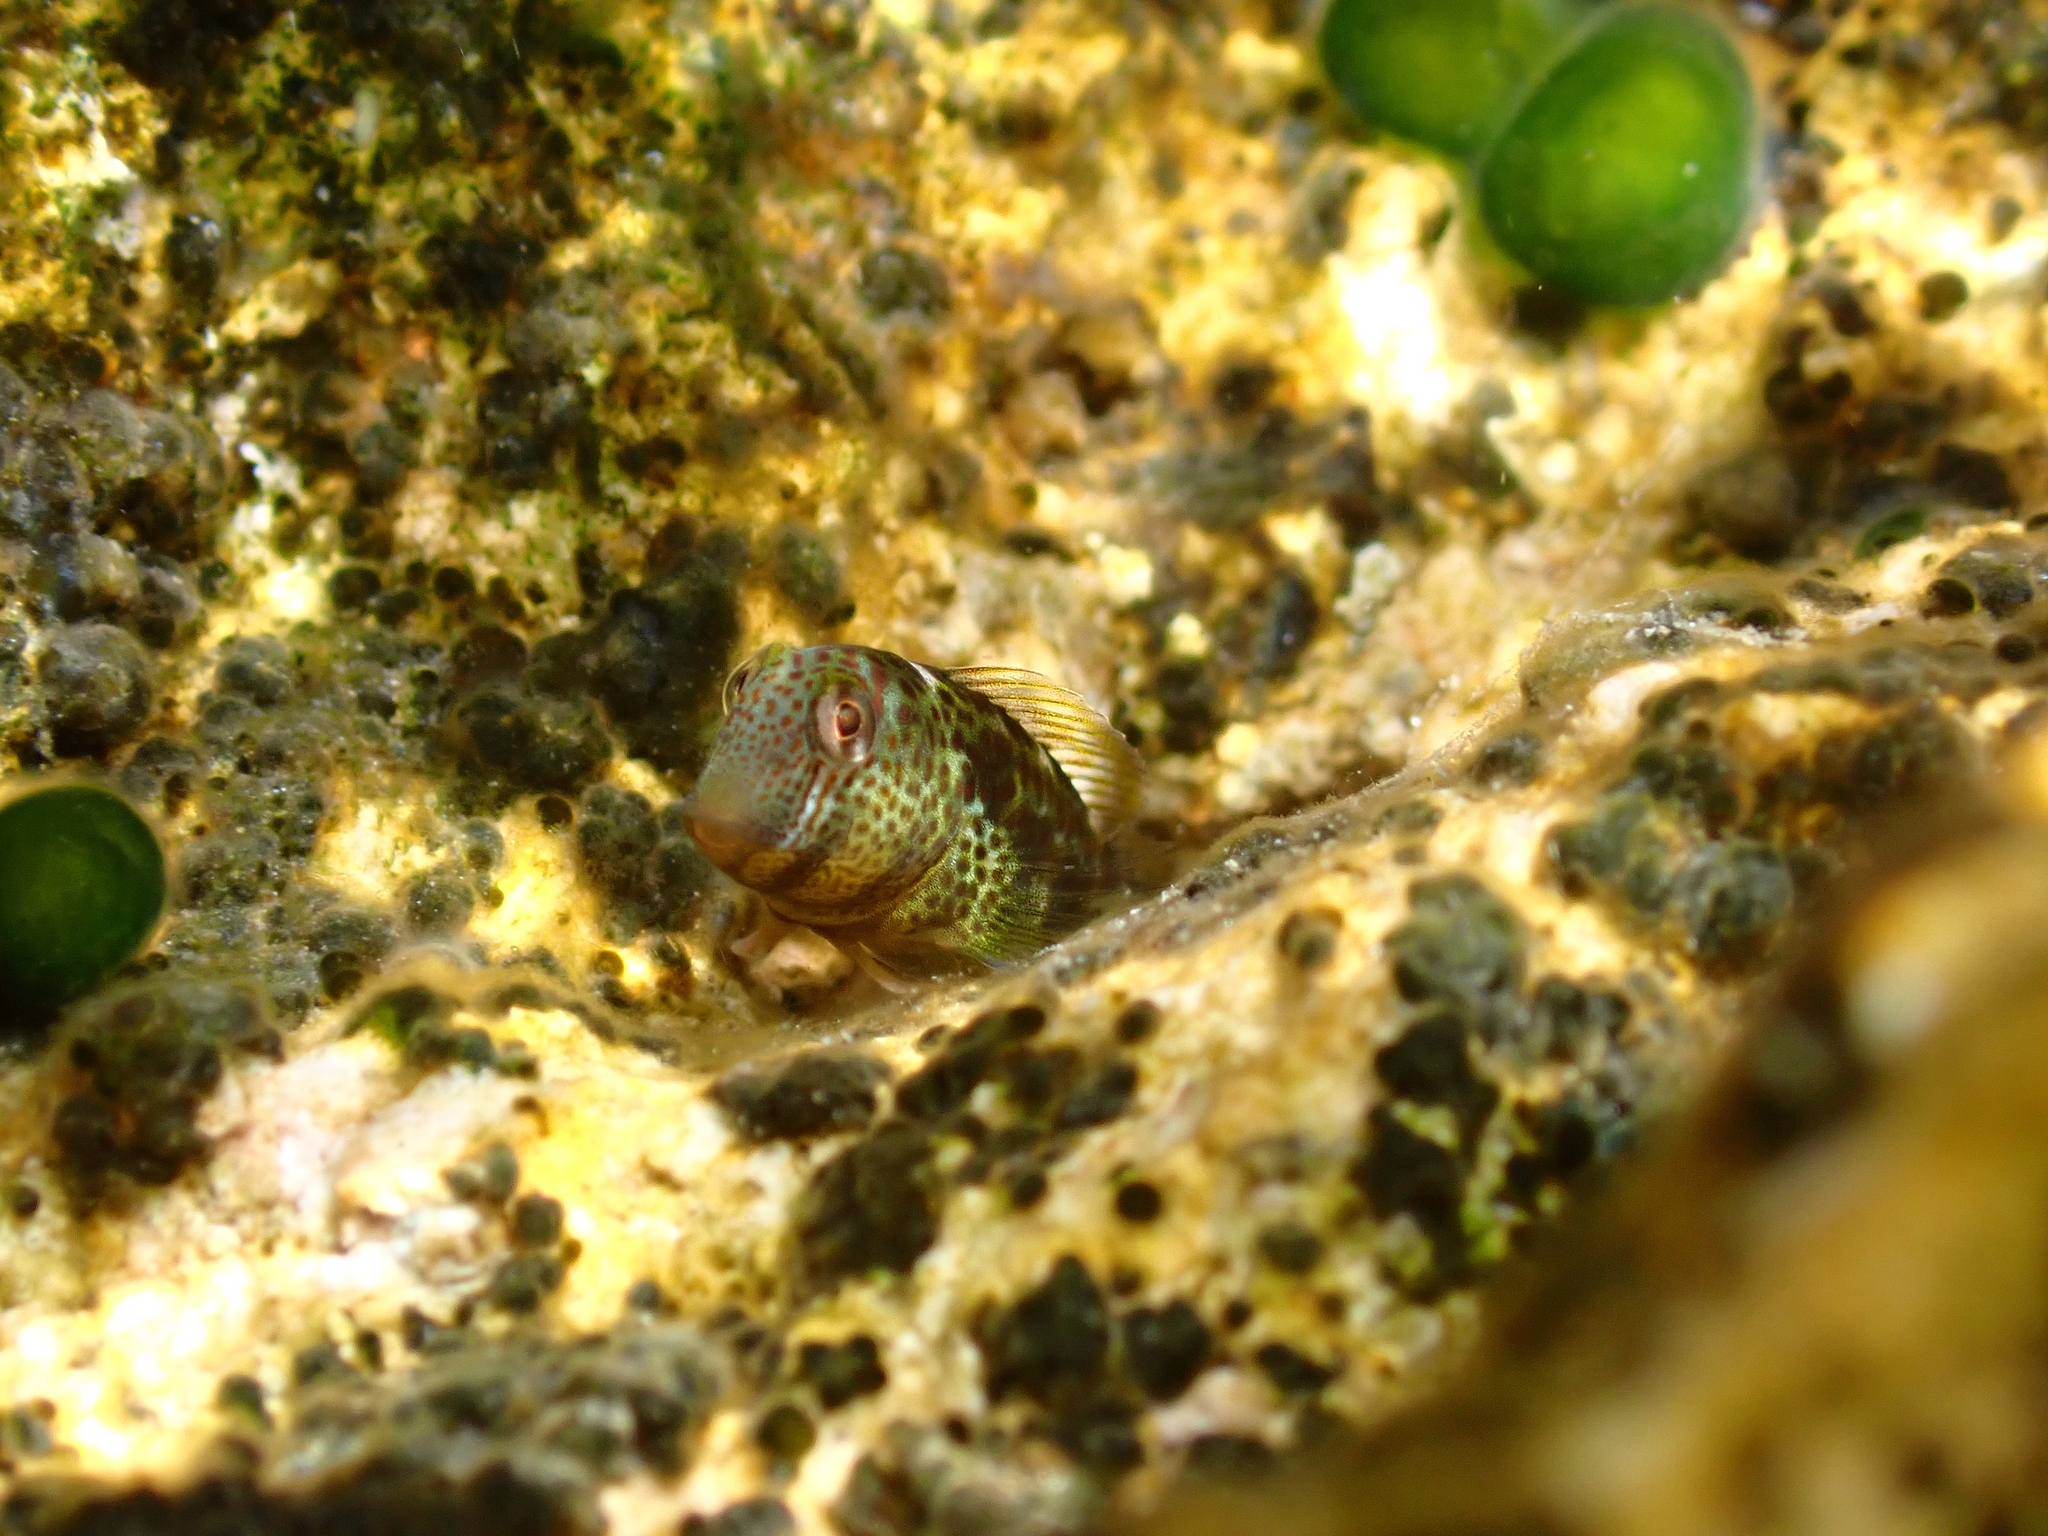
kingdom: Animalia
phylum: Chordata
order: Perciformes
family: Blenniidae
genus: Microlipophrys
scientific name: Microlipophrys canevae
